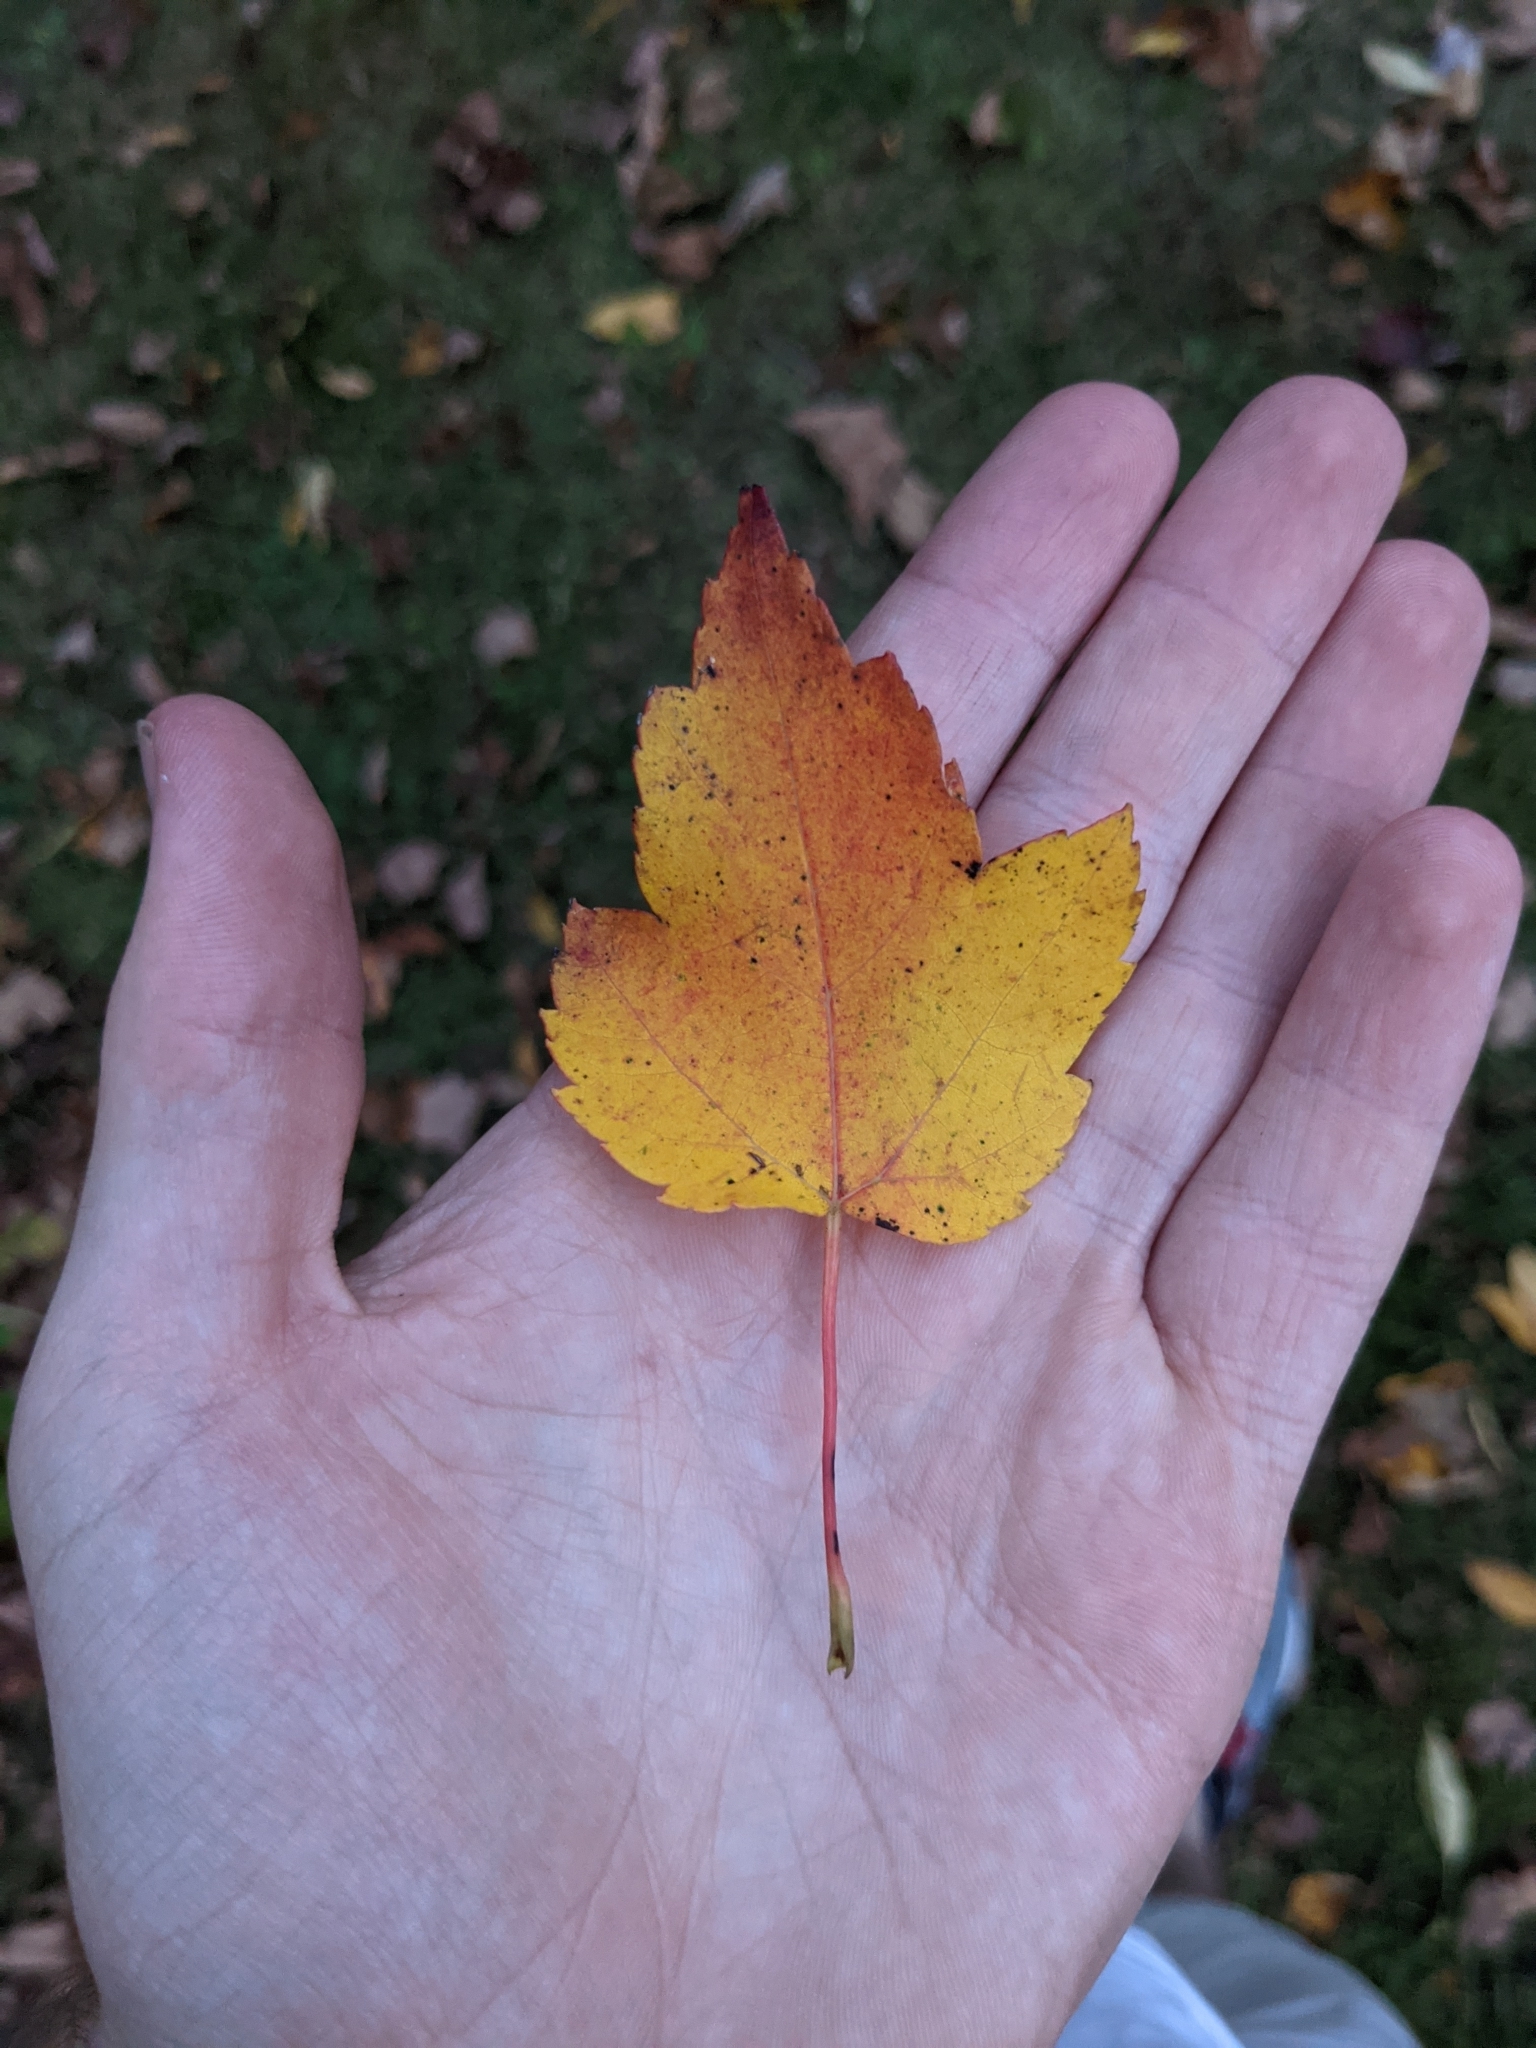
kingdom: Plantae
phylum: Tracheophyta
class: Magnoliopsida
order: Sapindales
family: Sapindaceae
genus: Acer
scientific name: Acer rubrum
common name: Red maple
